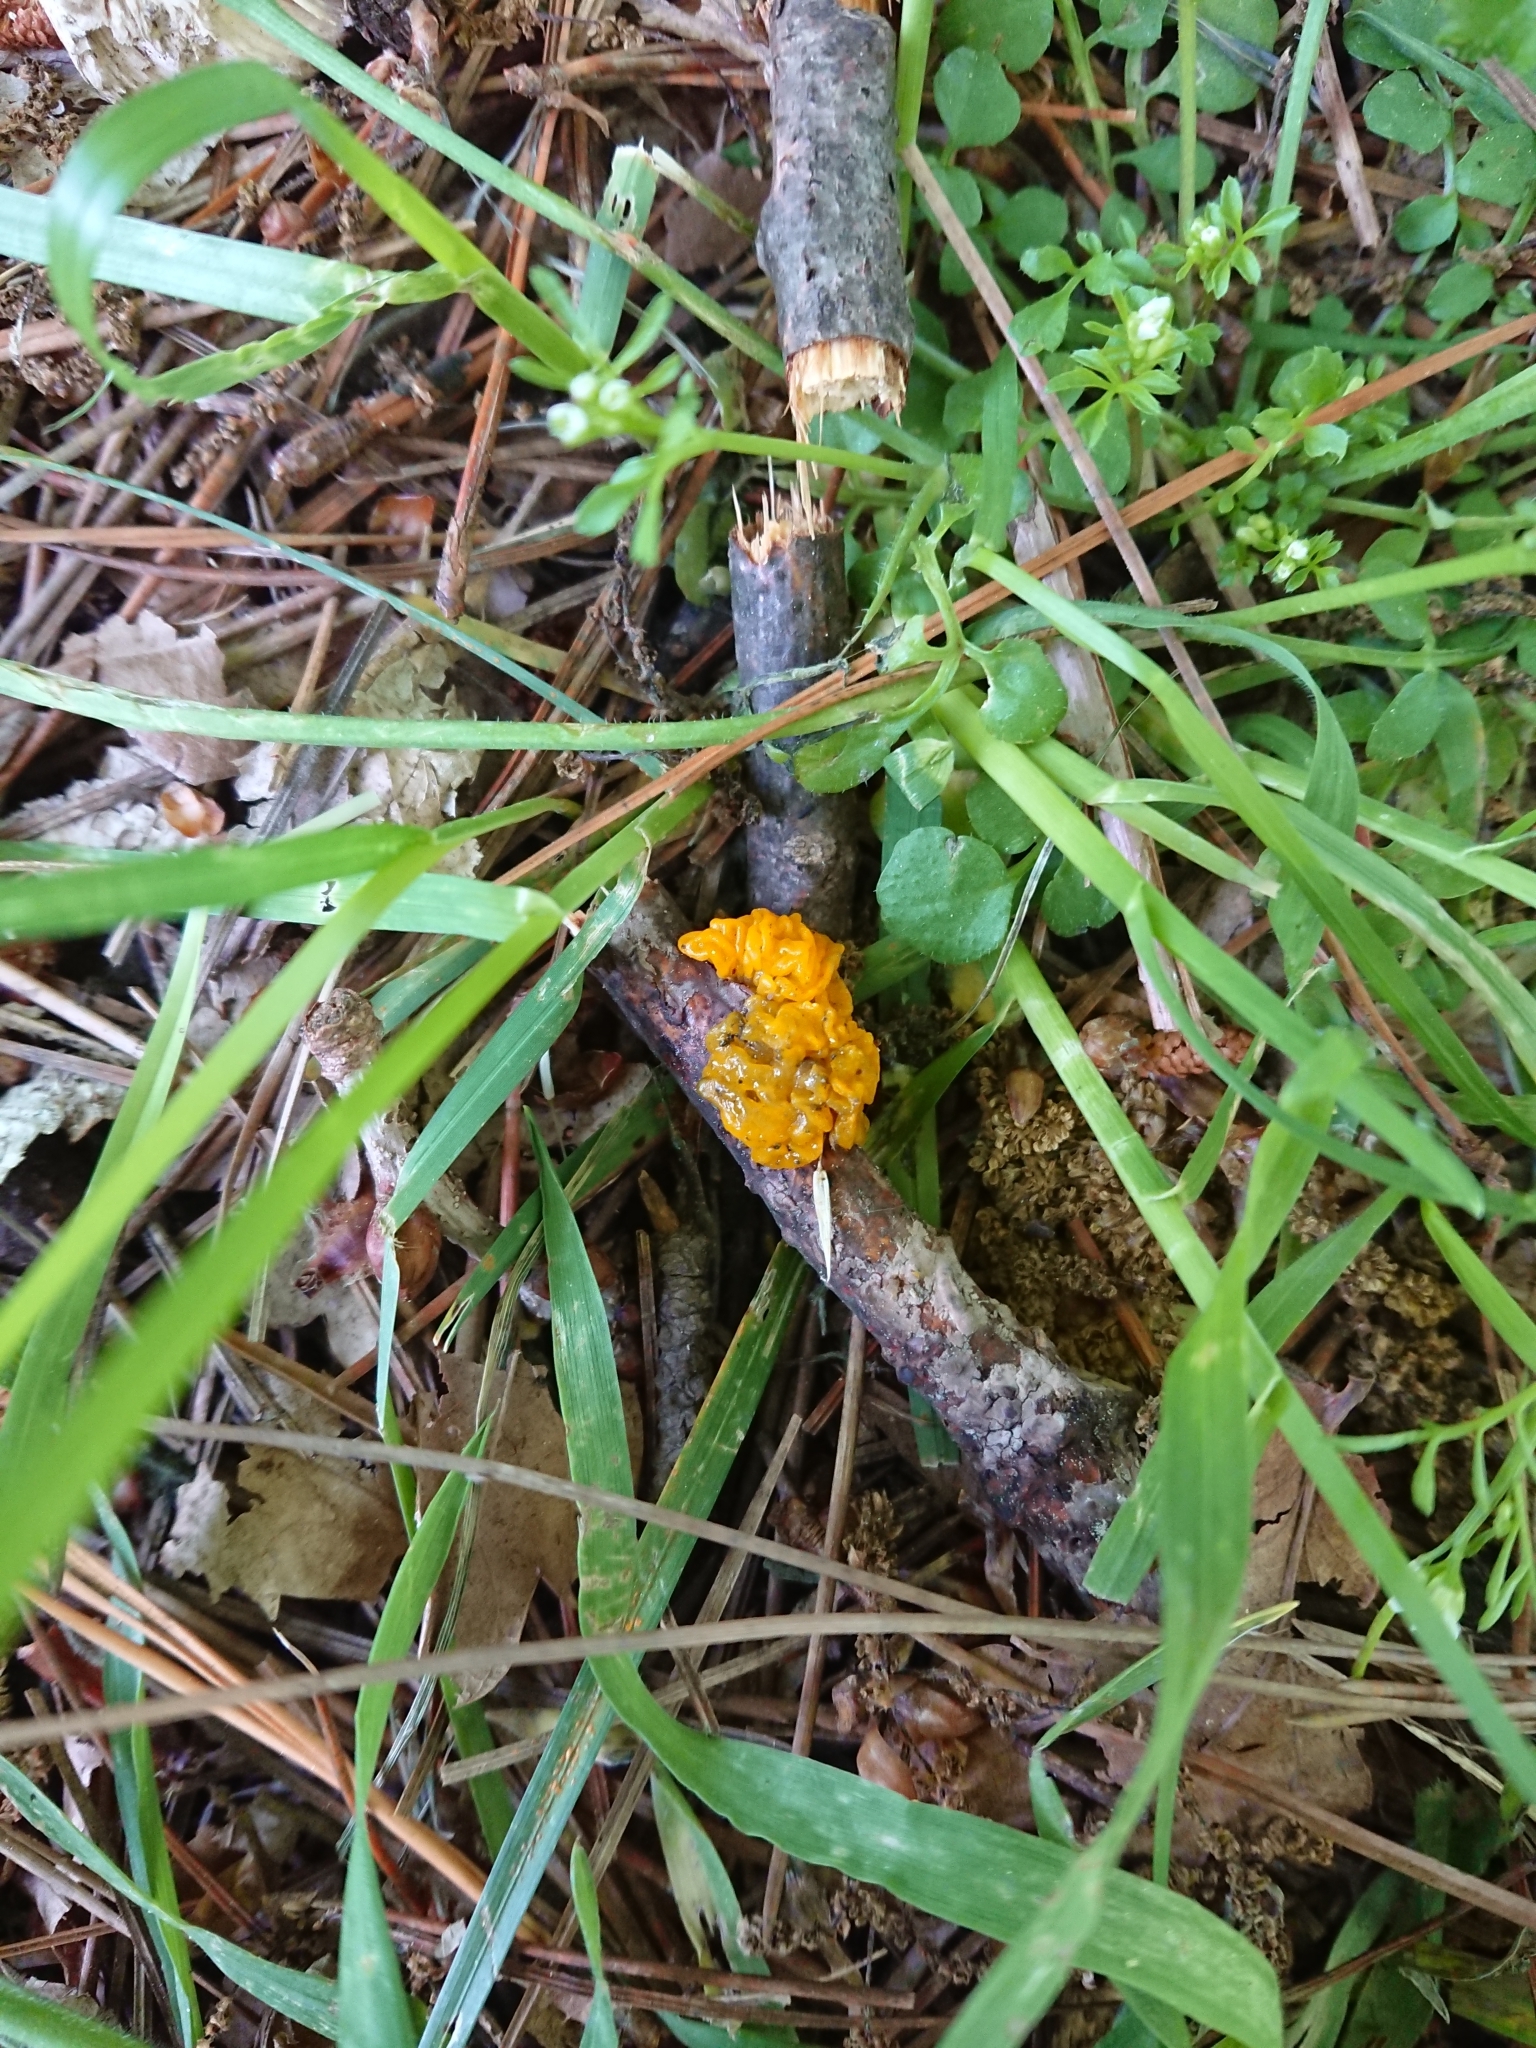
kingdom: Fungi
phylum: Basidiomycota
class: Tremellomycetes
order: Tremellales
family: Tremellaceae
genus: Tremella
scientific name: Tremella mesenterica
